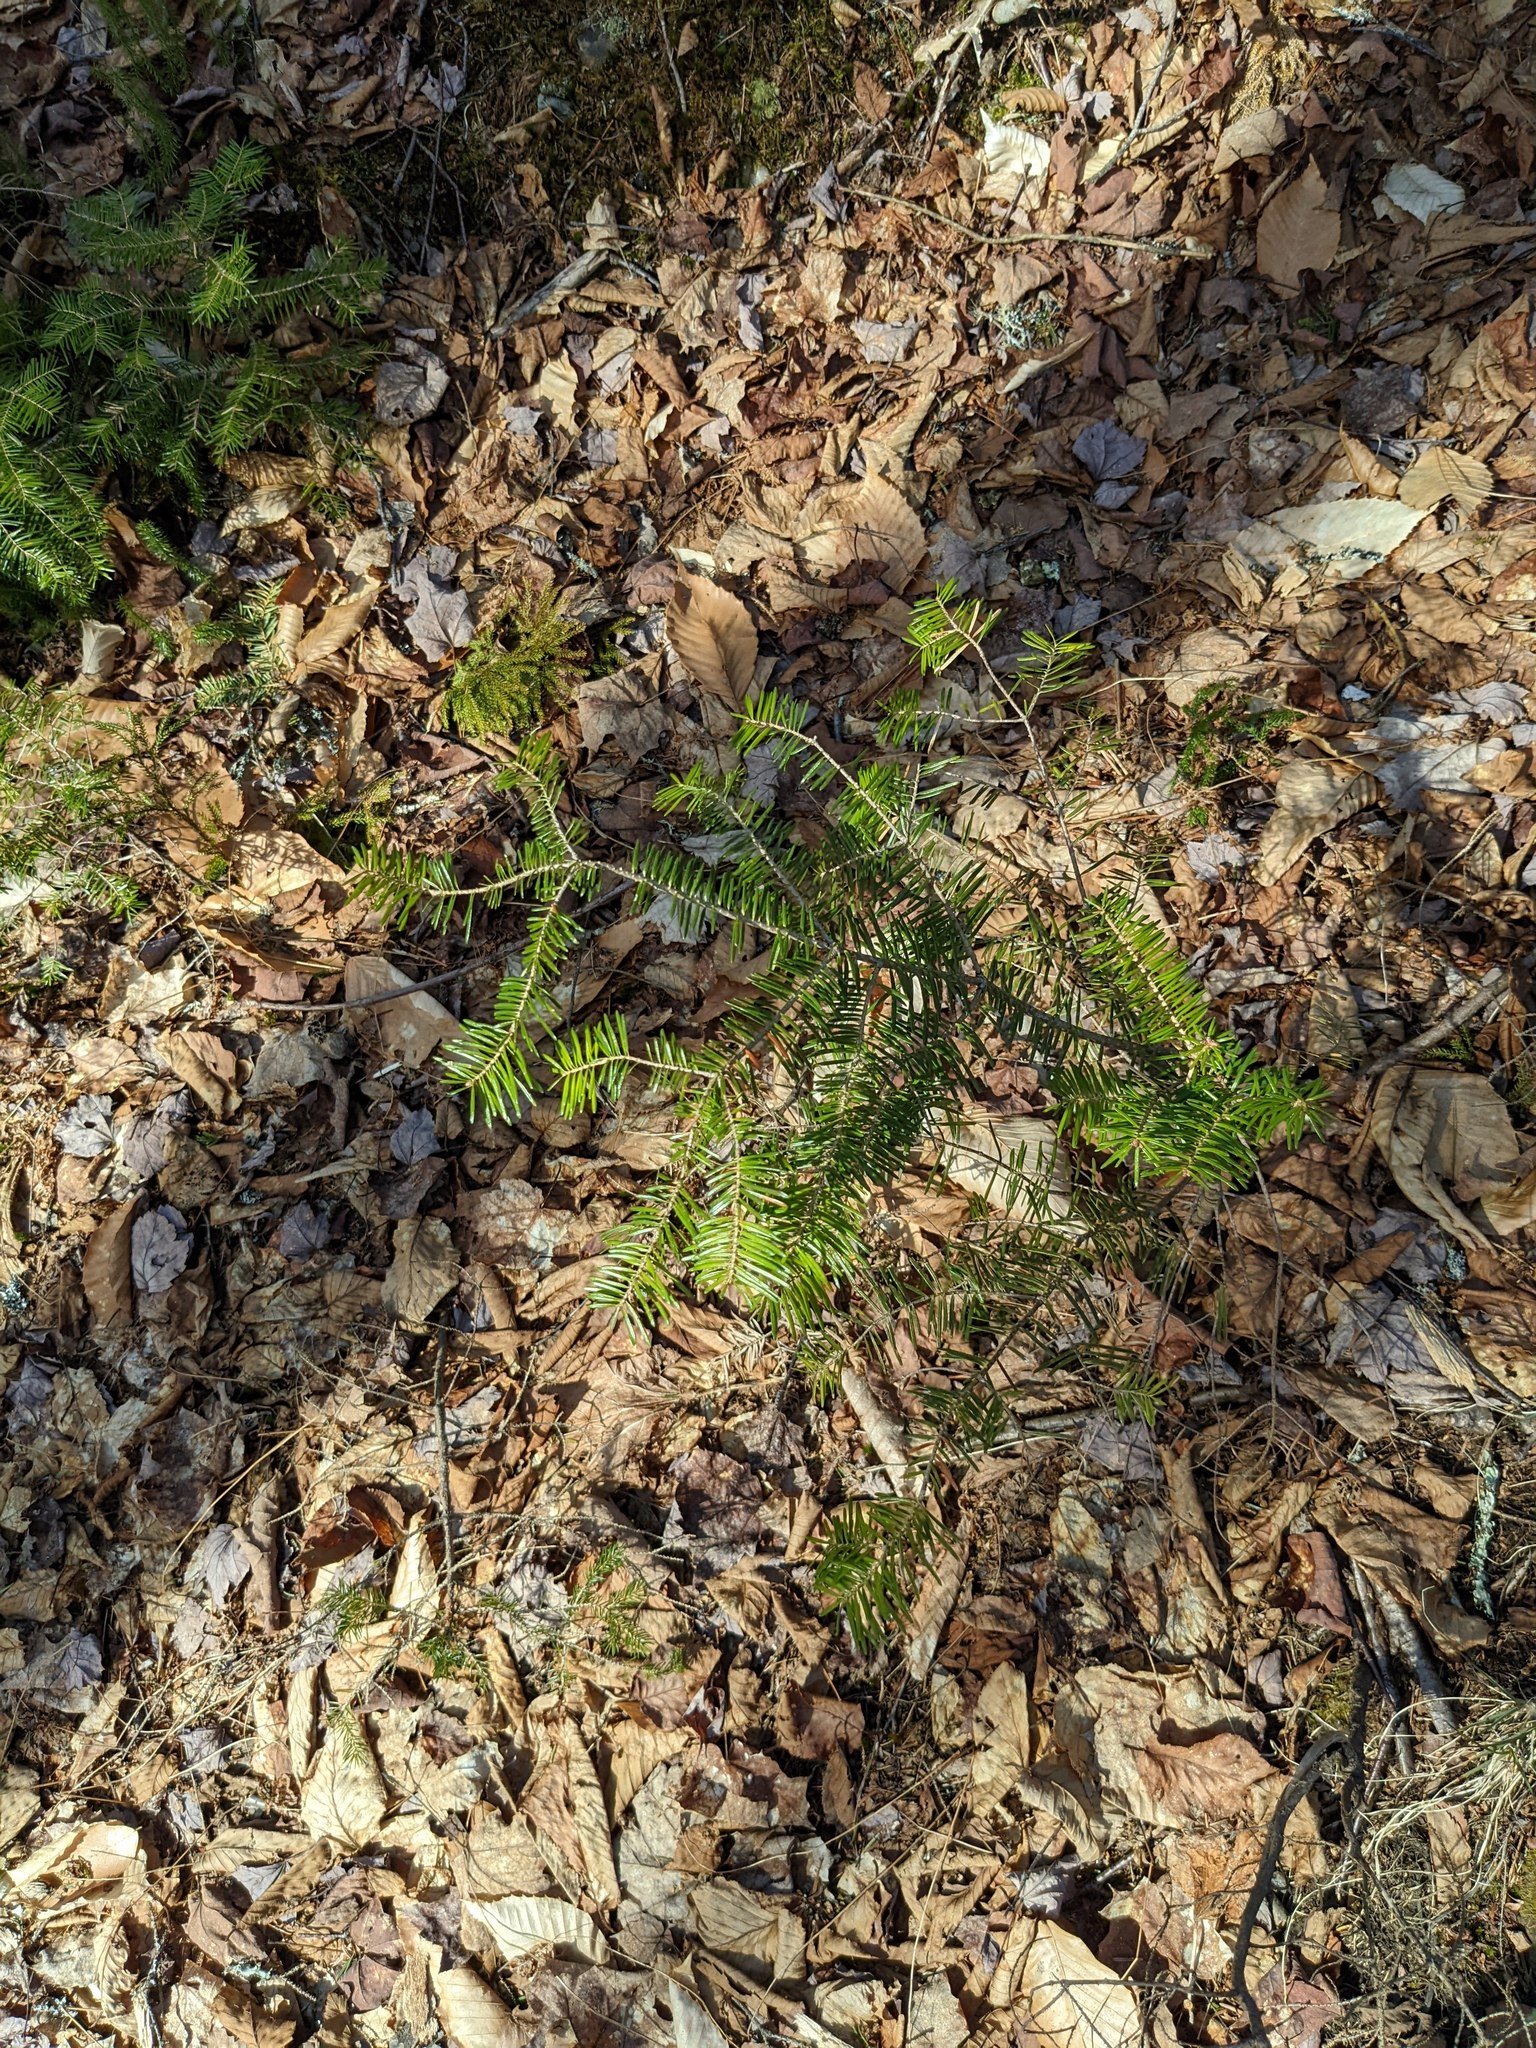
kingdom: Plantae
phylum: Tracheophyta
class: Pinopsida
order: Pinales
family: Pinaceae
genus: Abies
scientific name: Abies balsamea
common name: Balsam fir
